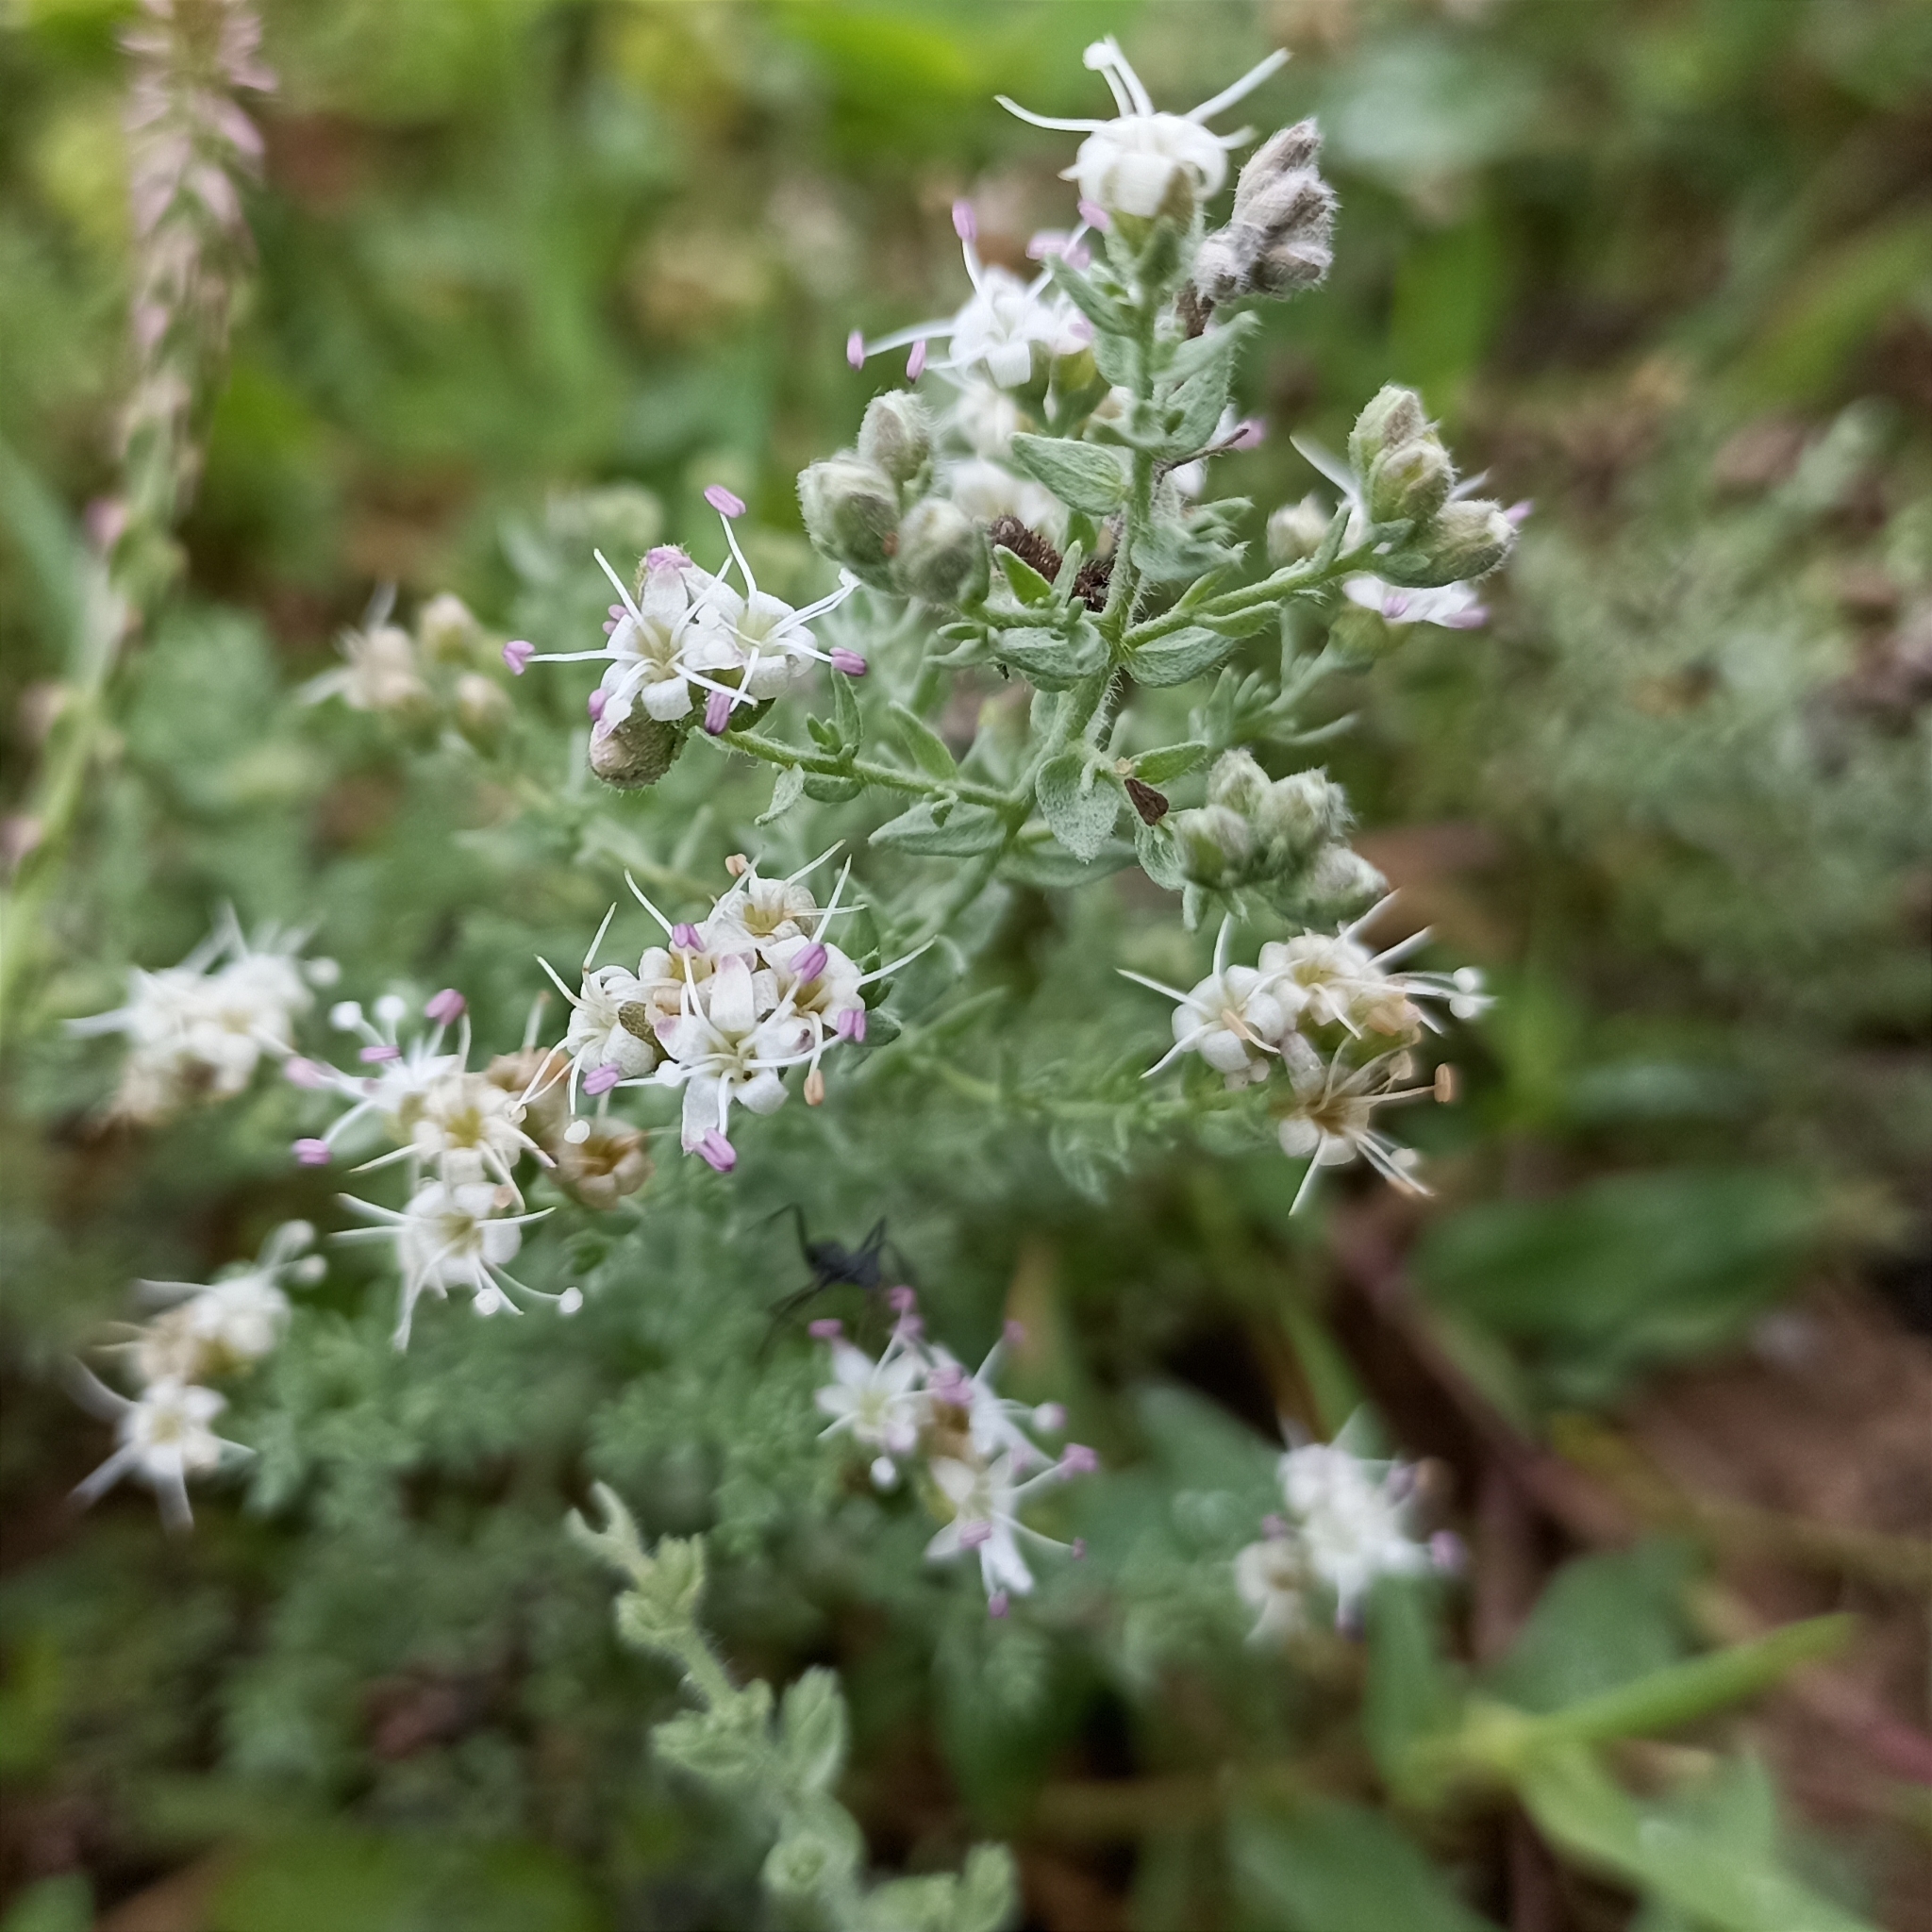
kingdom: Plantae
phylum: Tracheophyta
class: Magnoliopsida
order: Solanales
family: Convolvulaceae
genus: Cressa
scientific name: Cressa cretica
